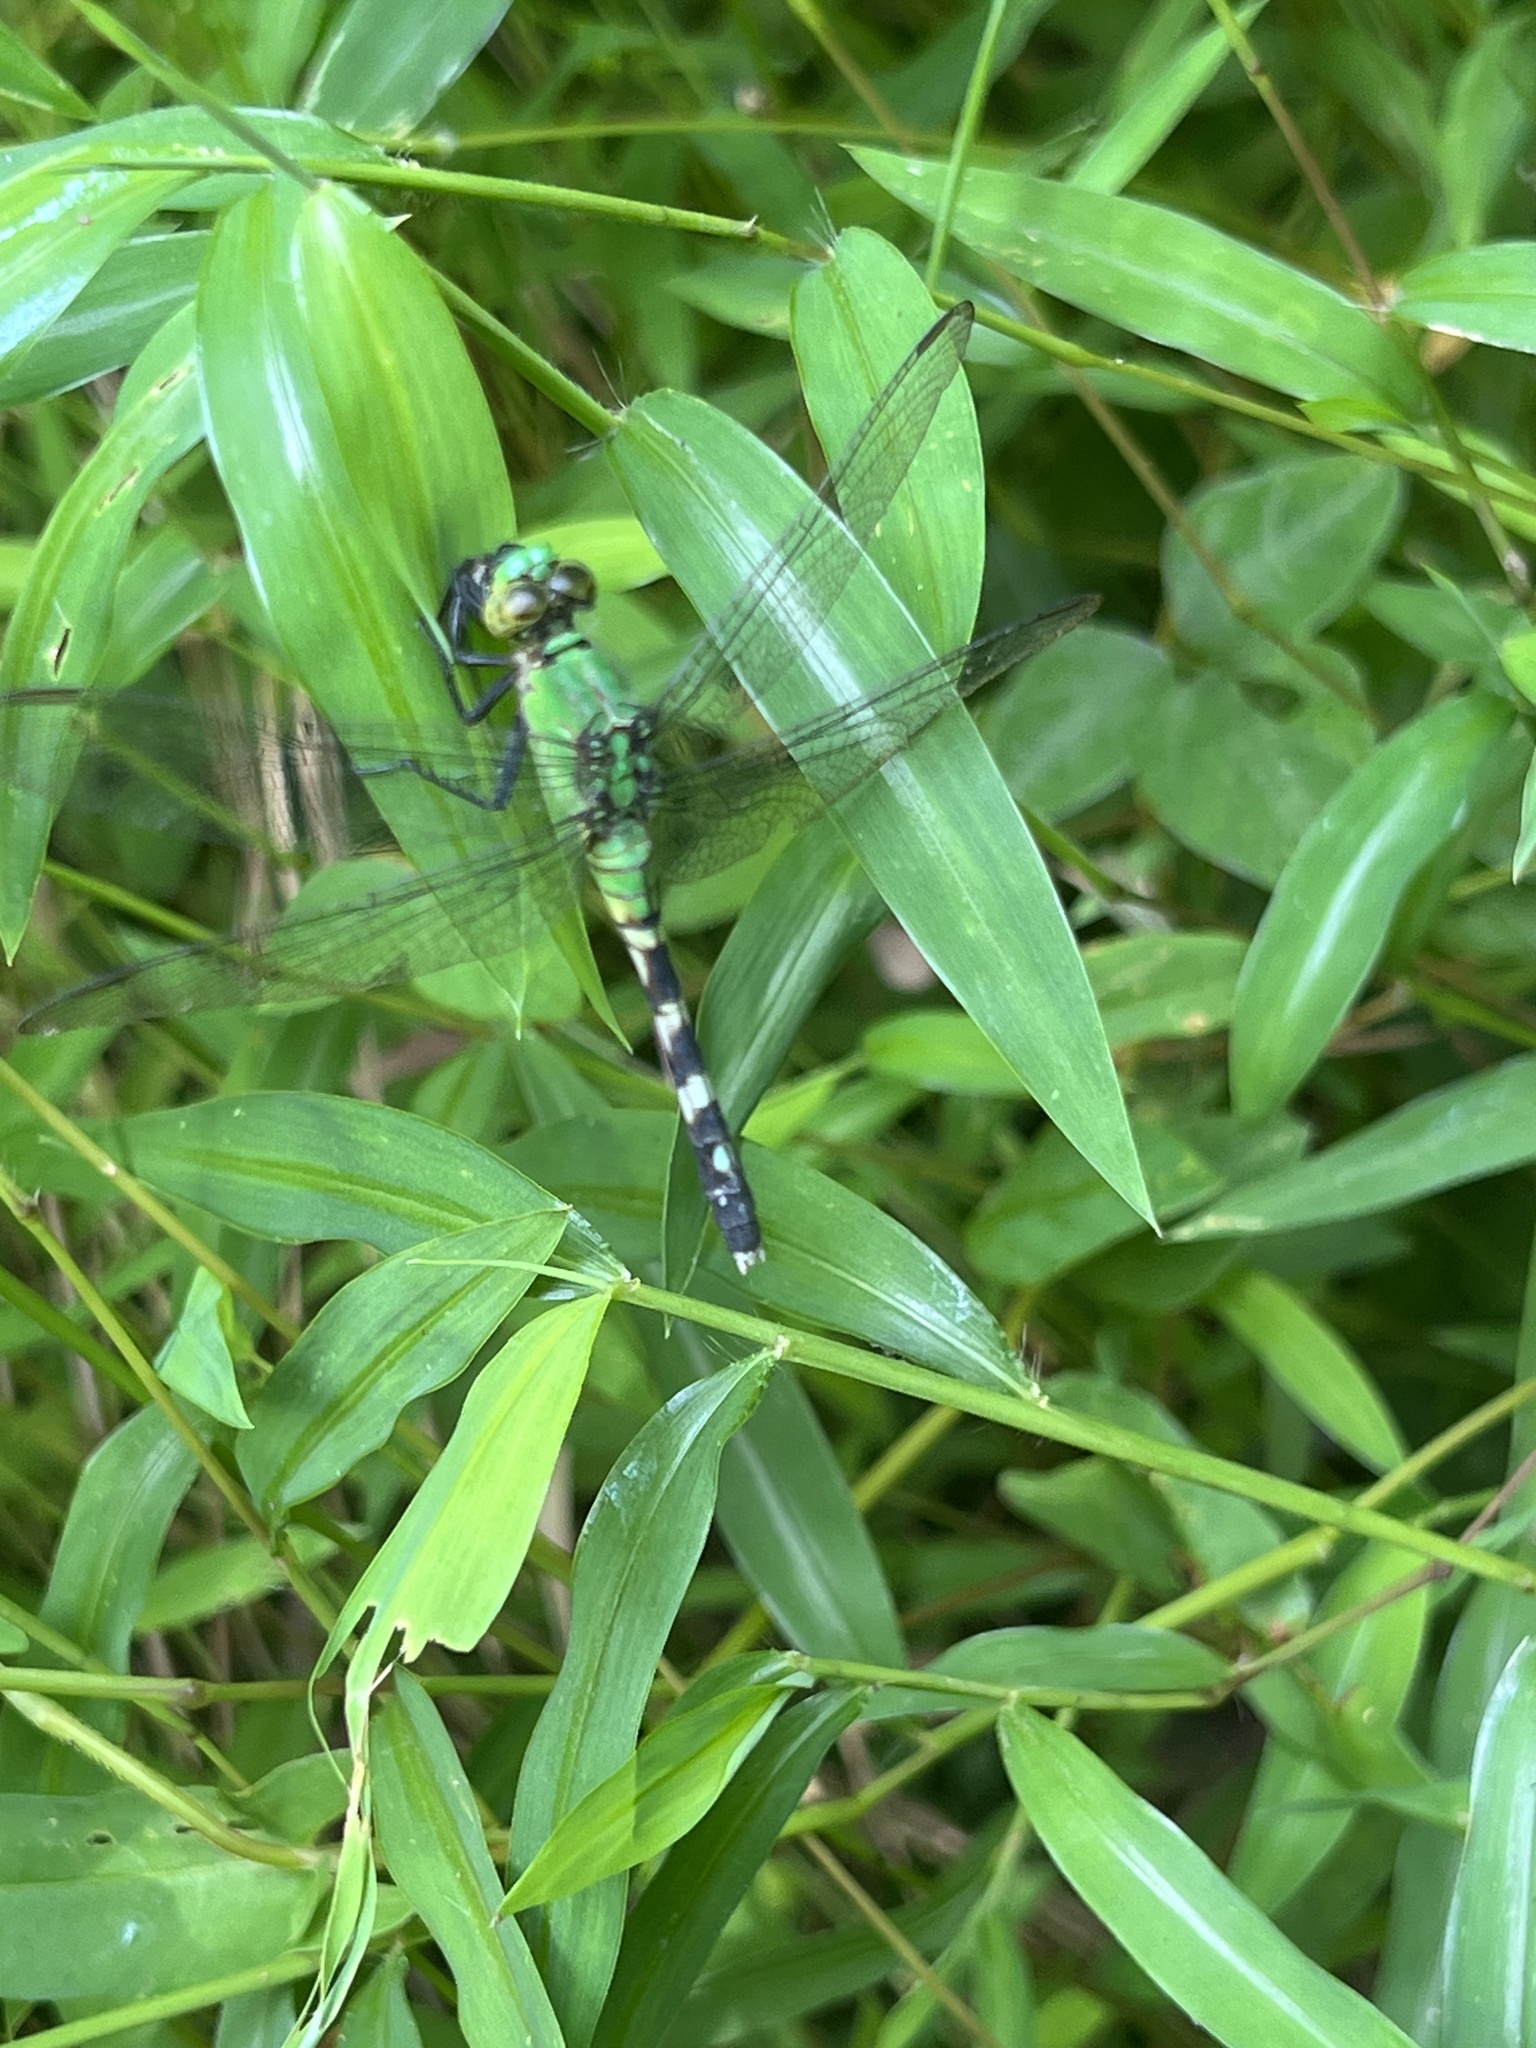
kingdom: Animalia
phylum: Arthropoda
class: Insecta
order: Odonata
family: Libellulidae
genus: Erythemis
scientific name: Erythemis simplicicollis
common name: Eastern pondhawk
